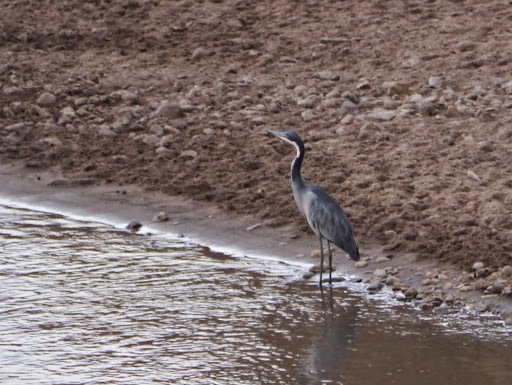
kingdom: Animalia
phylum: Chordata
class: Aves
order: Pelecaniformes
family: Ardeidae
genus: Ardea
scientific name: Ardea melanocephala
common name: Black-headed heron
